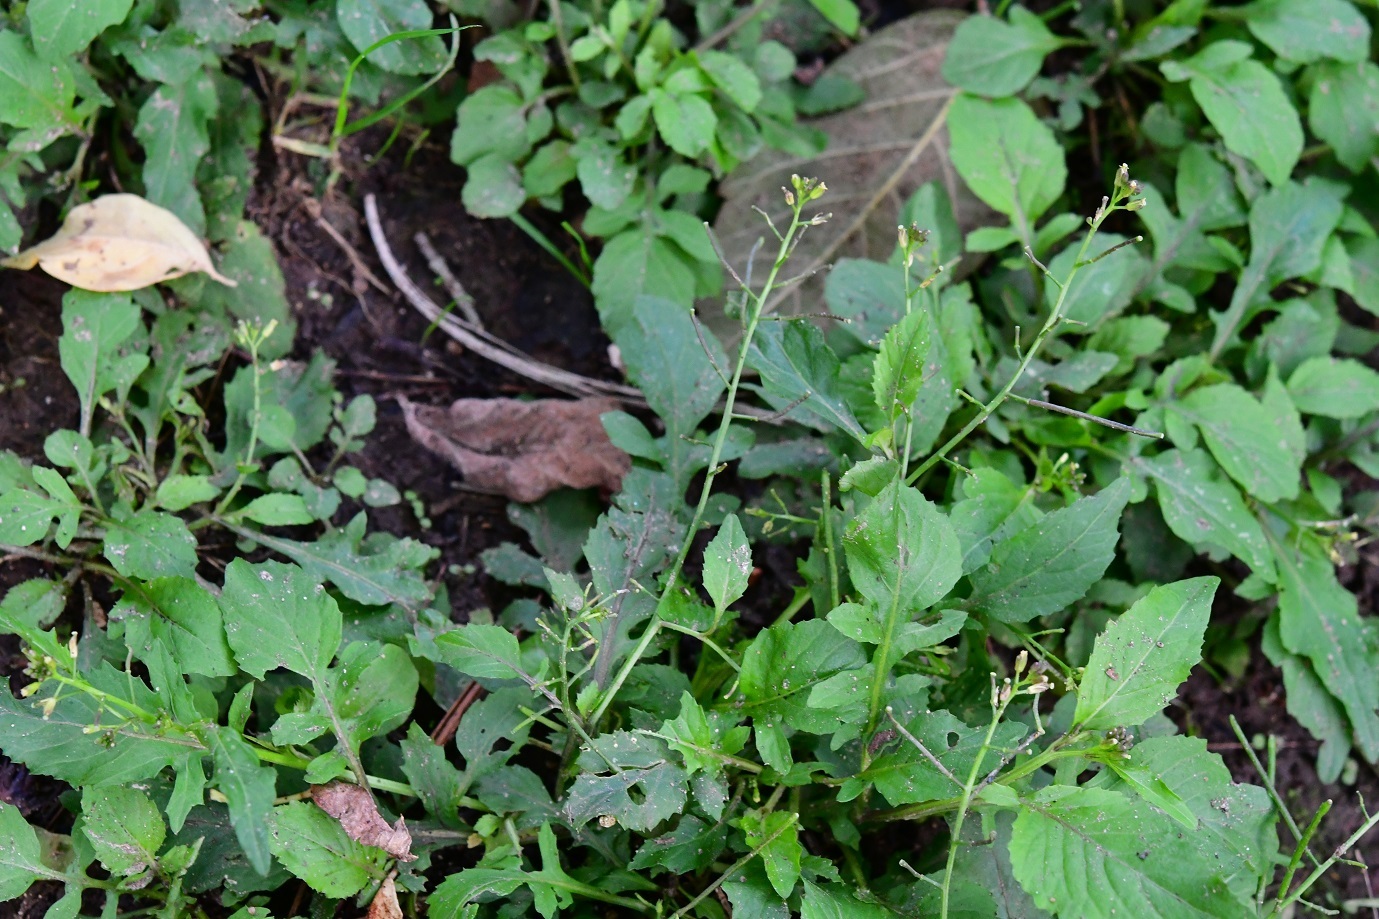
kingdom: Plantae
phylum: Tracheophyta
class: Magnoliopsida
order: Brassicales
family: Brassicaceae
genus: Rorippa
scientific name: Rorippa dubia
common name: Variableleaf yellowcress
